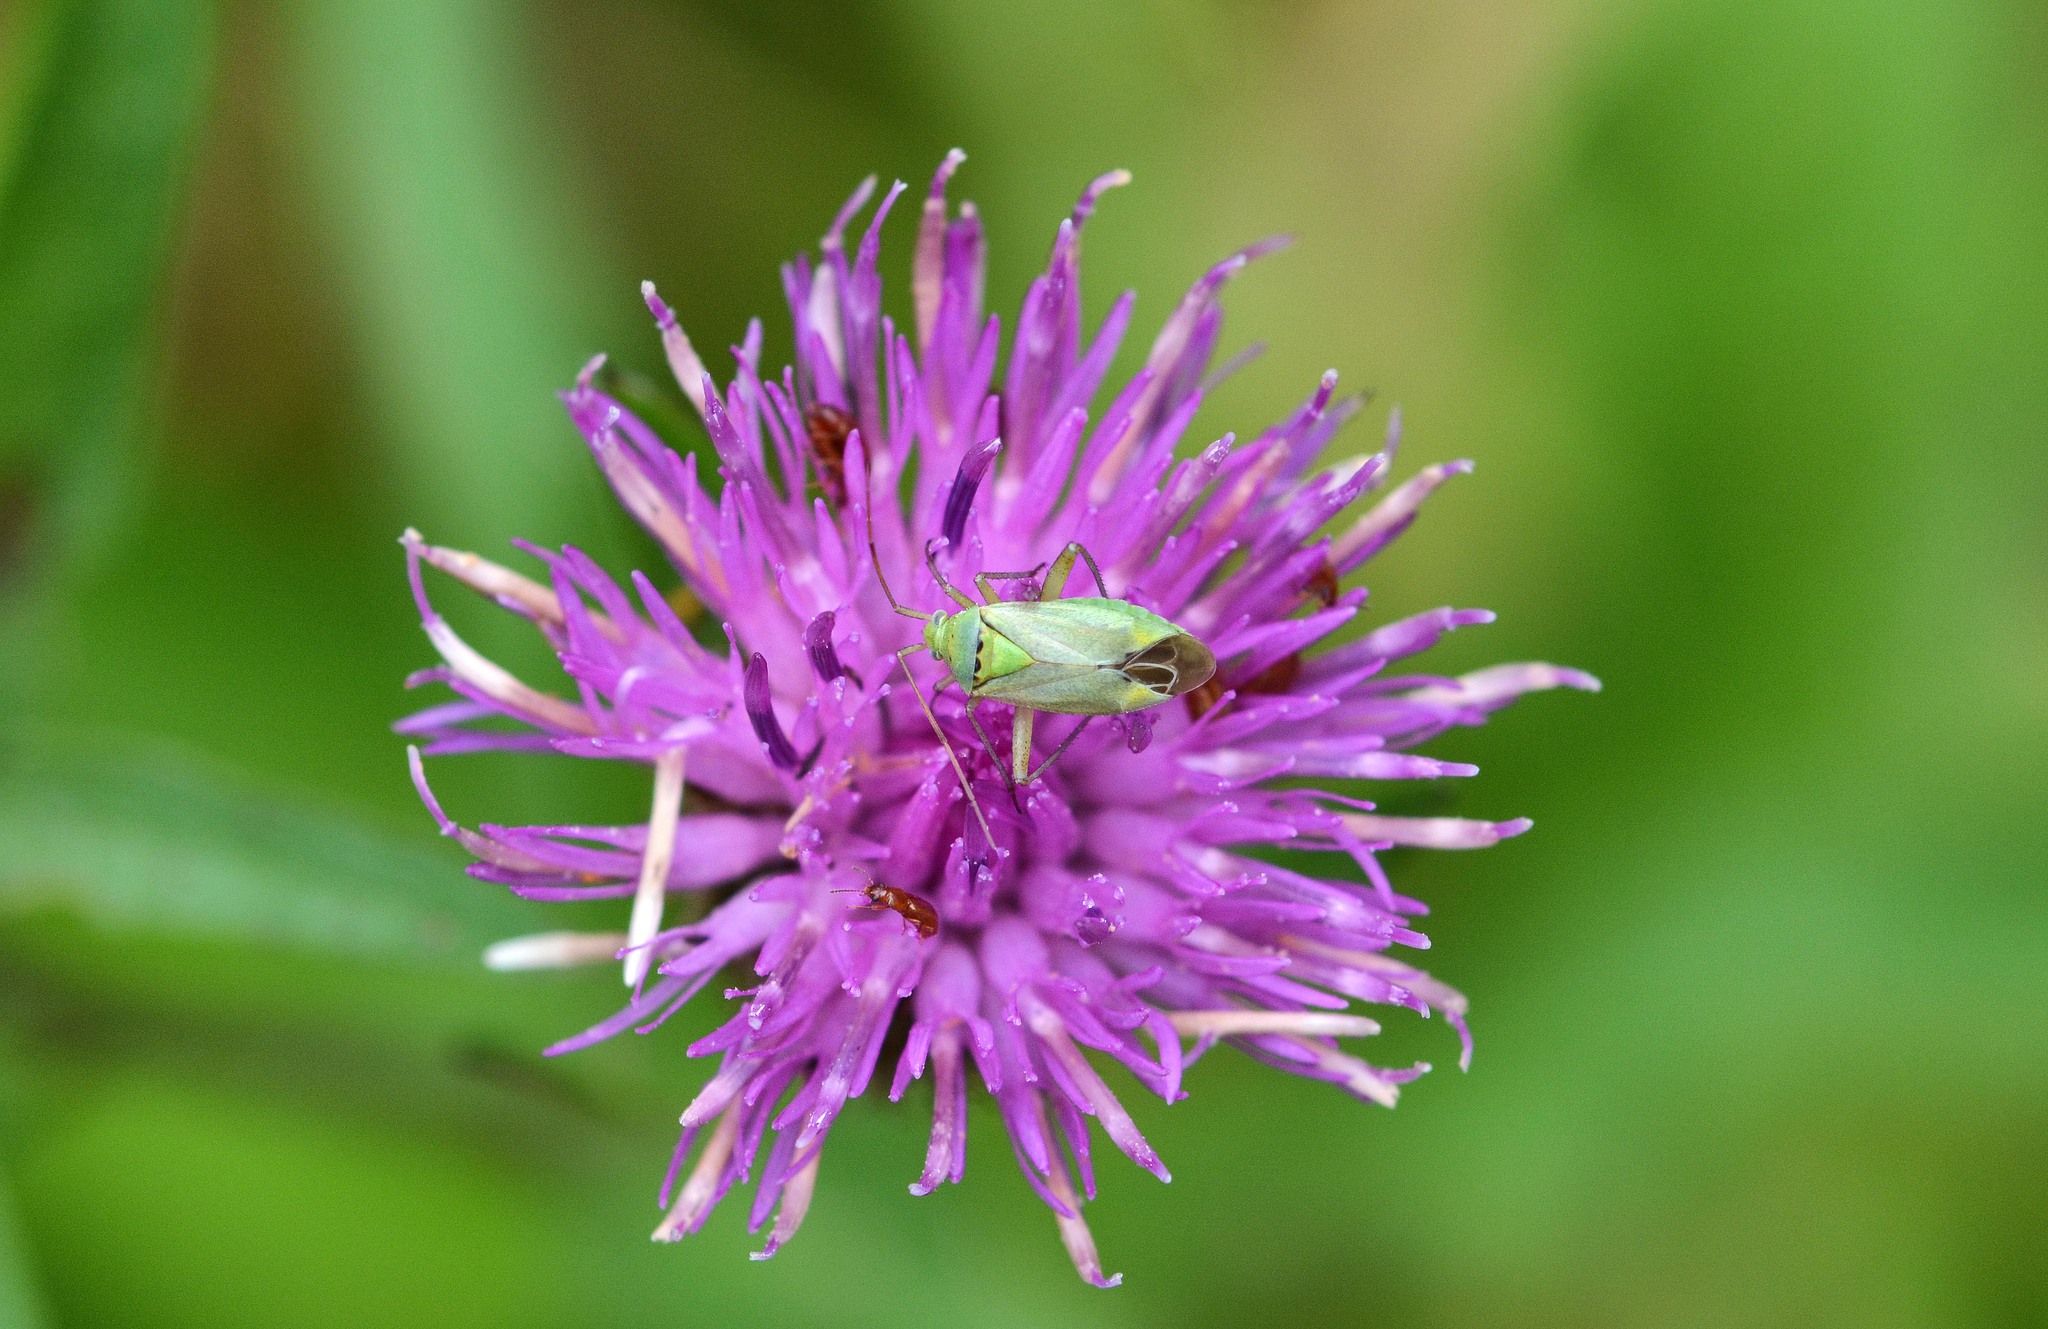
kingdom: Animalia
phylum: Arthropoda
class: Insecta
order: Hemiptera
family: Miridae
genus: Closterotomus
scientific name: Closterotomus norvegicus
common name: Plant bug
